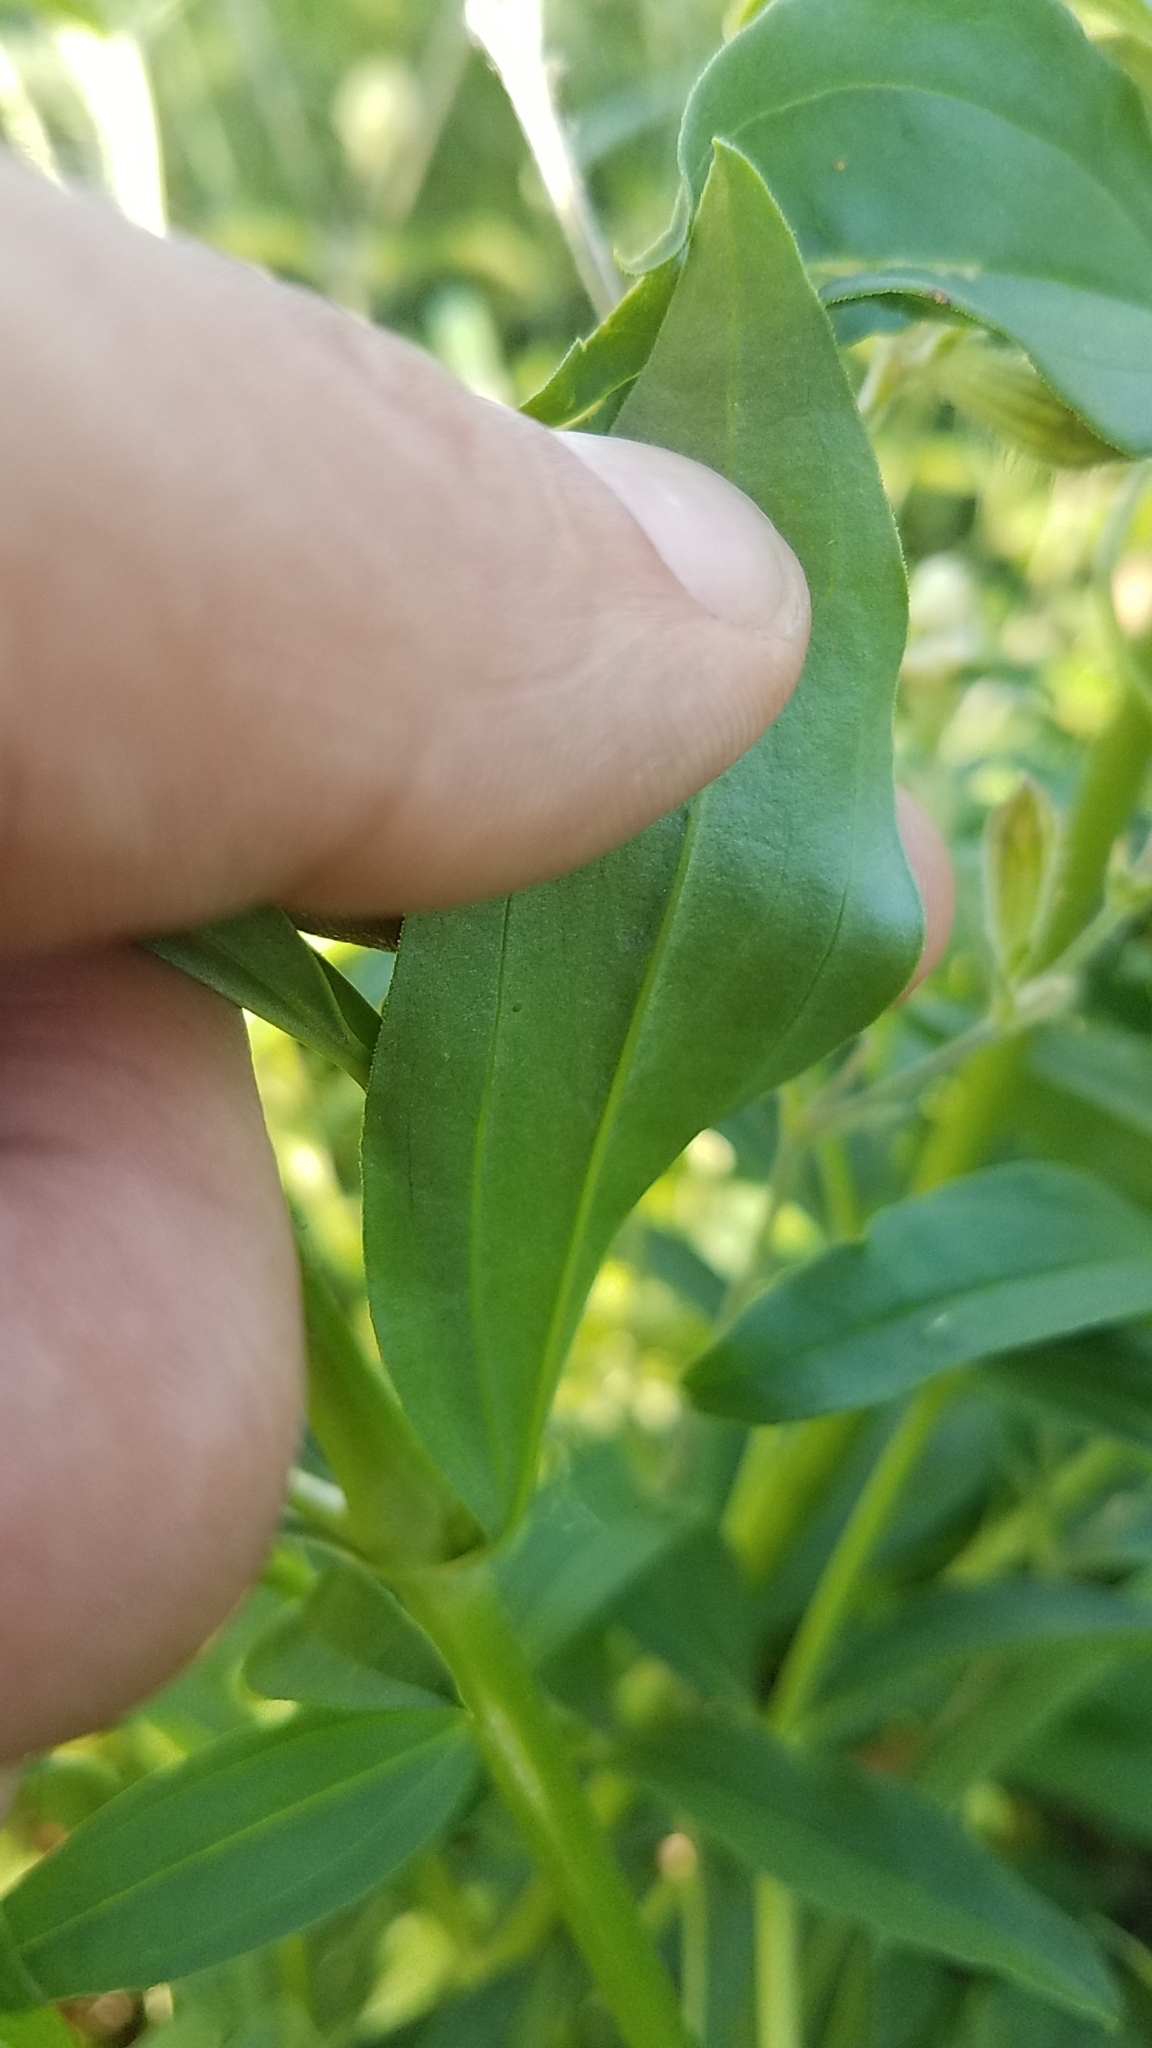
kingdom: Plantae
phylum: Tracheophyta
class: Magnoliopsida
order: Caryophyllales
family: Caryophyllaceae
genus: Saponaria
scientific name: Saponaria officinalis
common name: Soapwort
